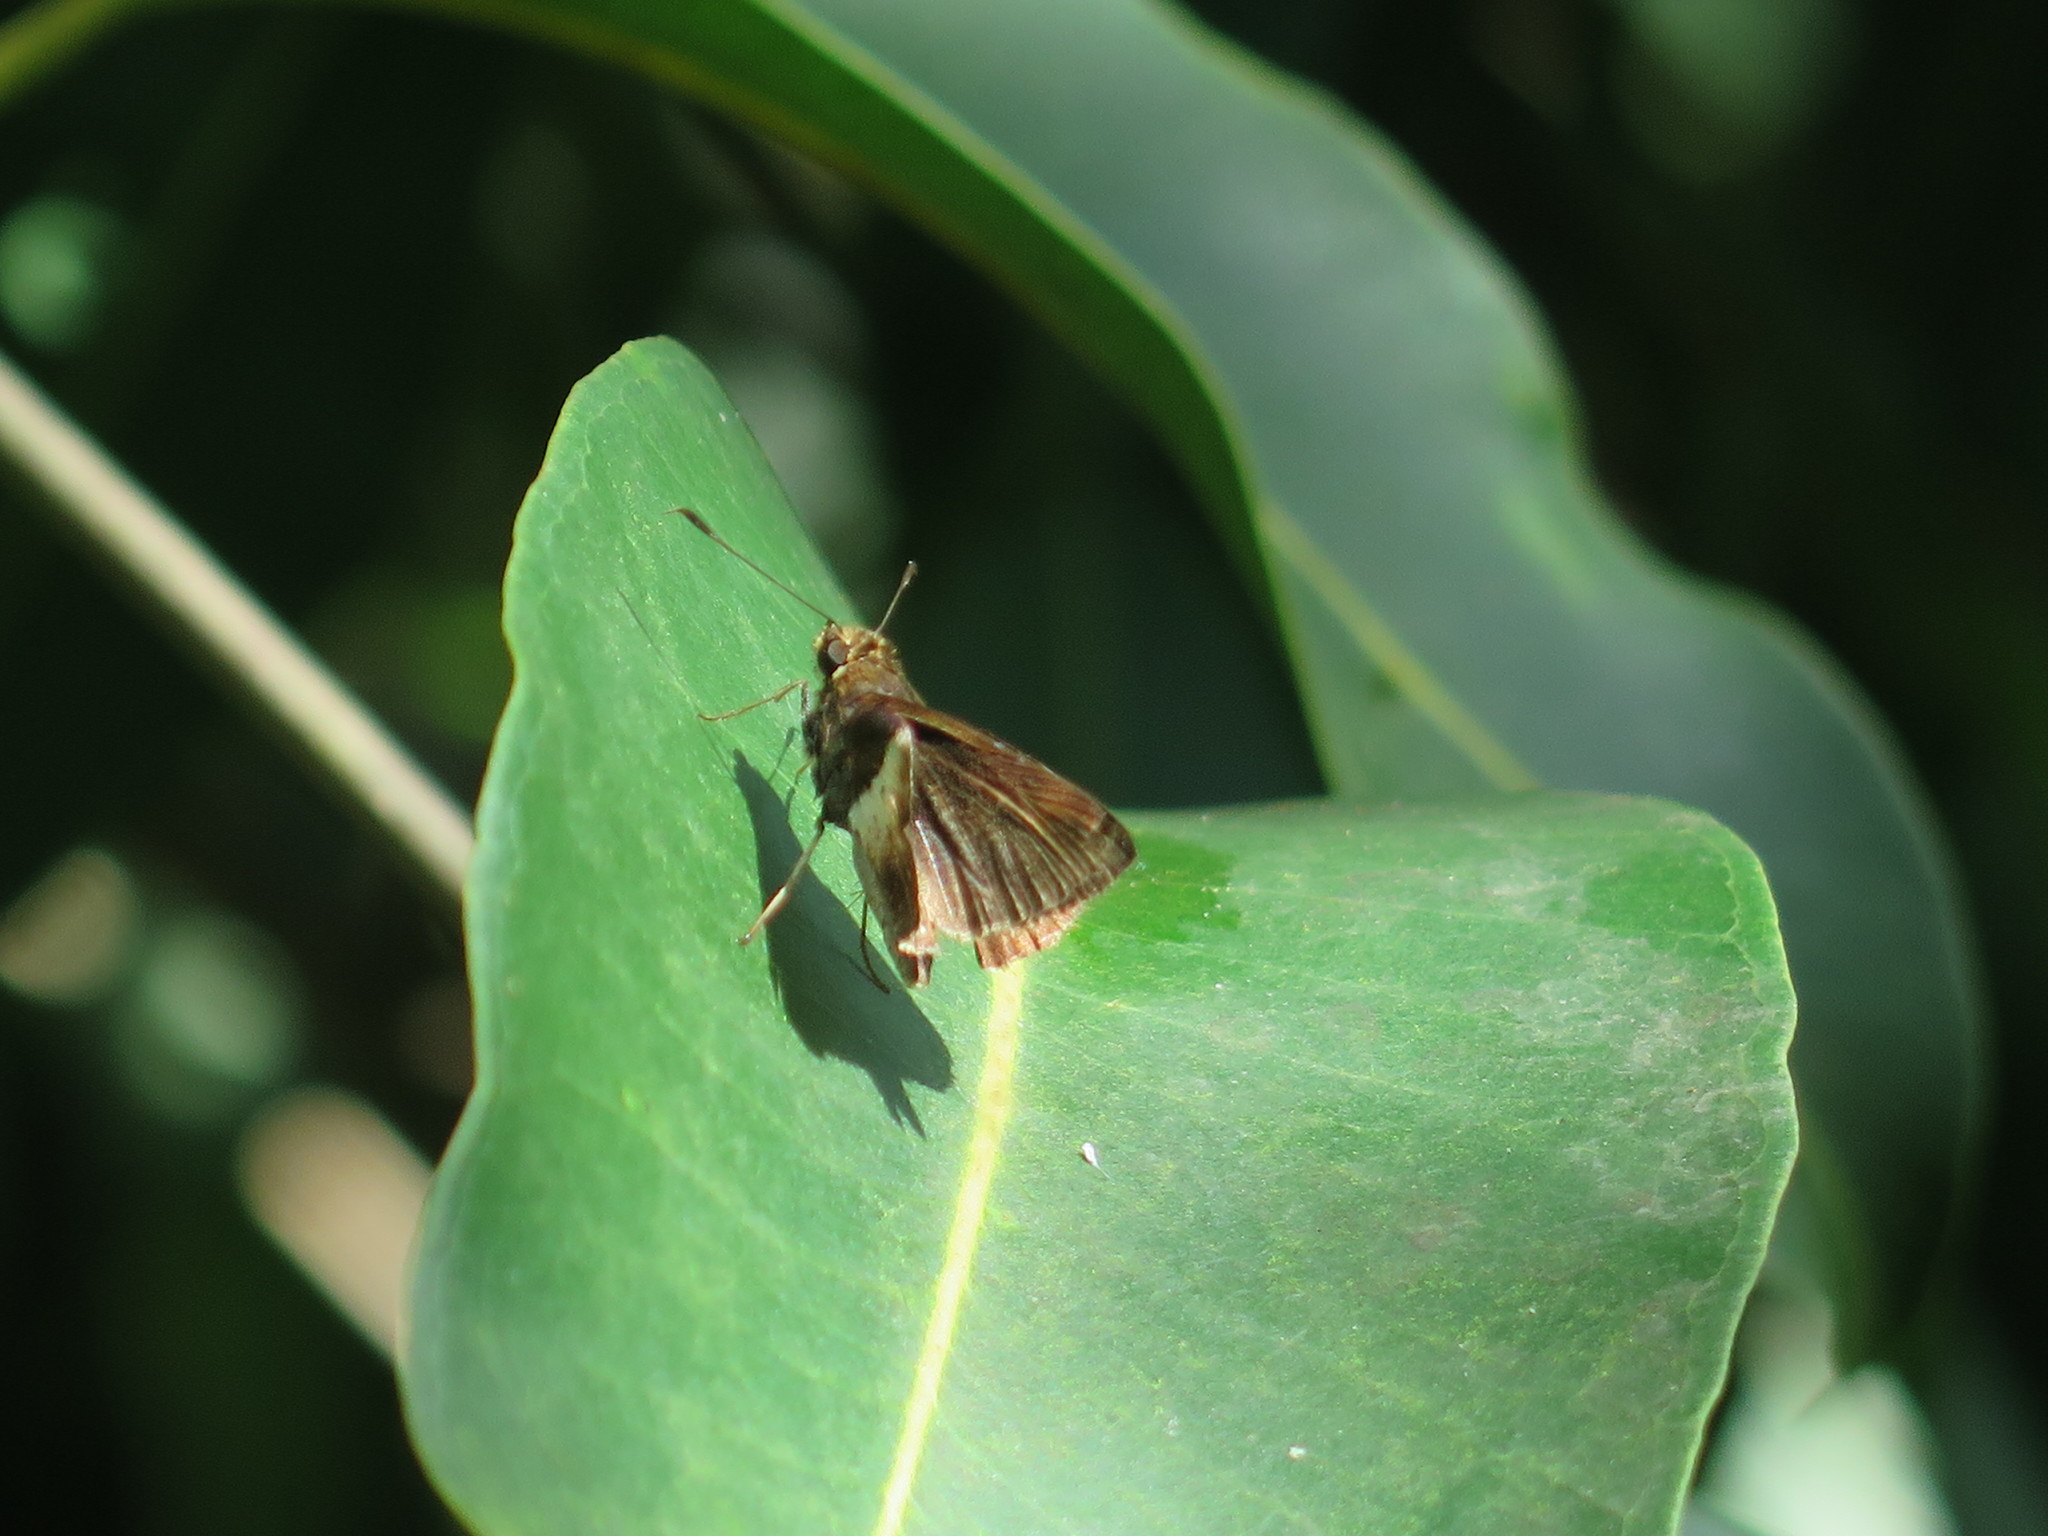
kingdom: Animalia
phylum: Arthropoda
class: Insecta
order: Lepidoptera
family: Hesperiidae
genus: Moeris
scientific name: Moeris remus
